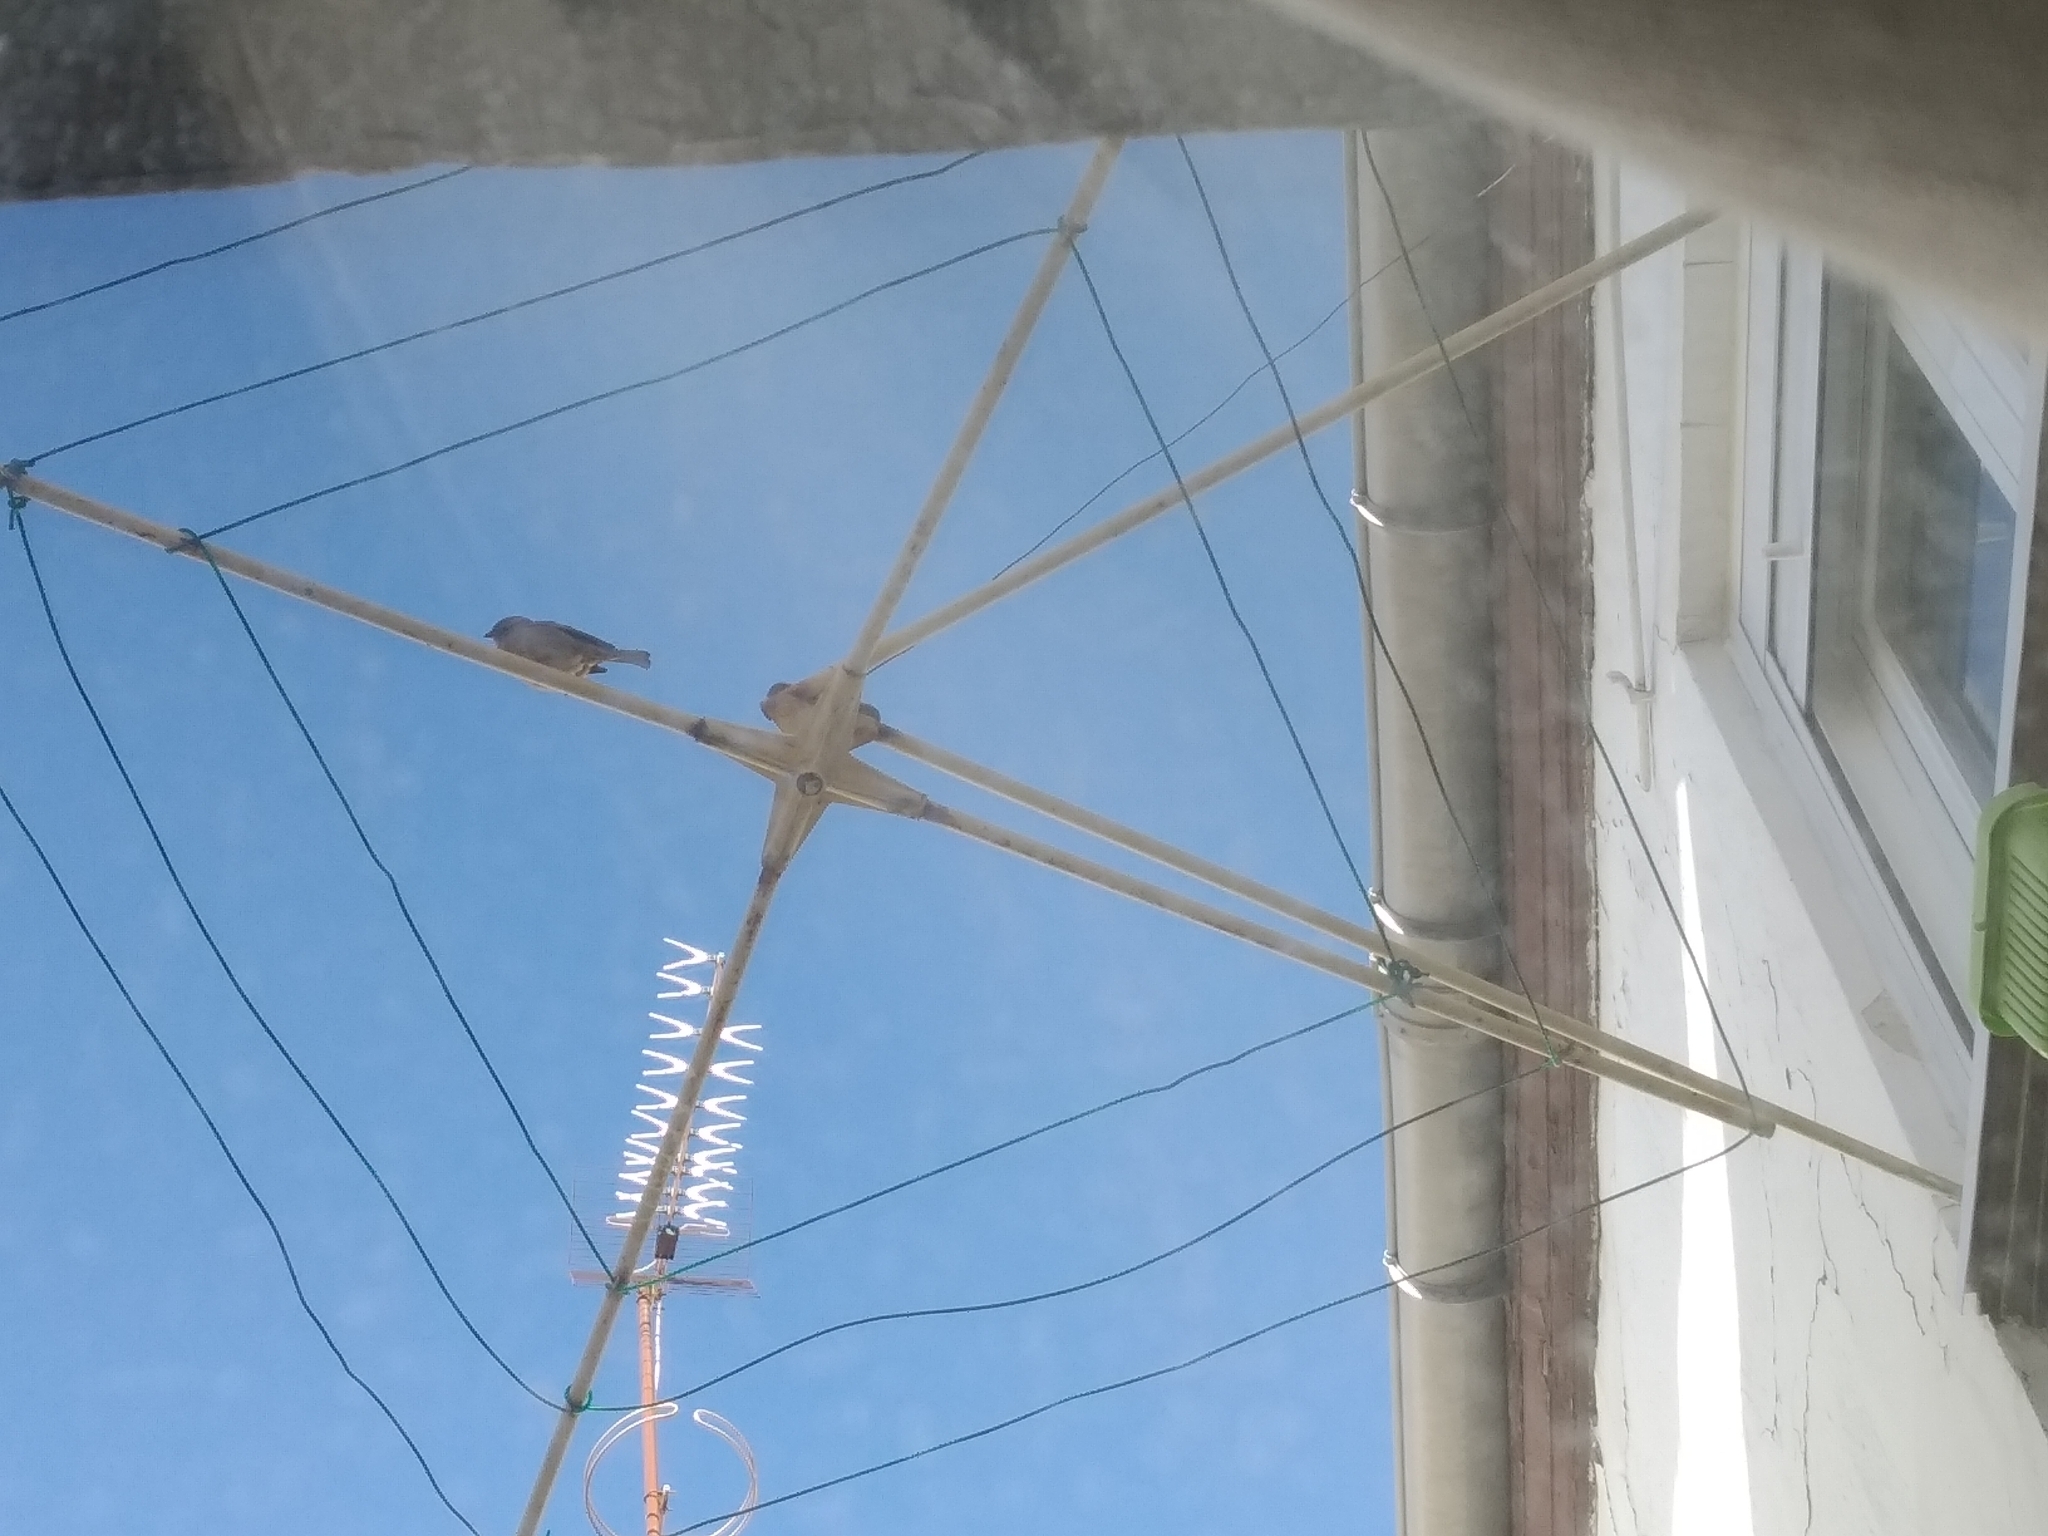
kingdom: Animalia
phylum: Chordata
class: Aves
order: Passeriformes
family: Passeridae
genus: Passer
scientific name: Passer domesticus
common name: House sparrow
